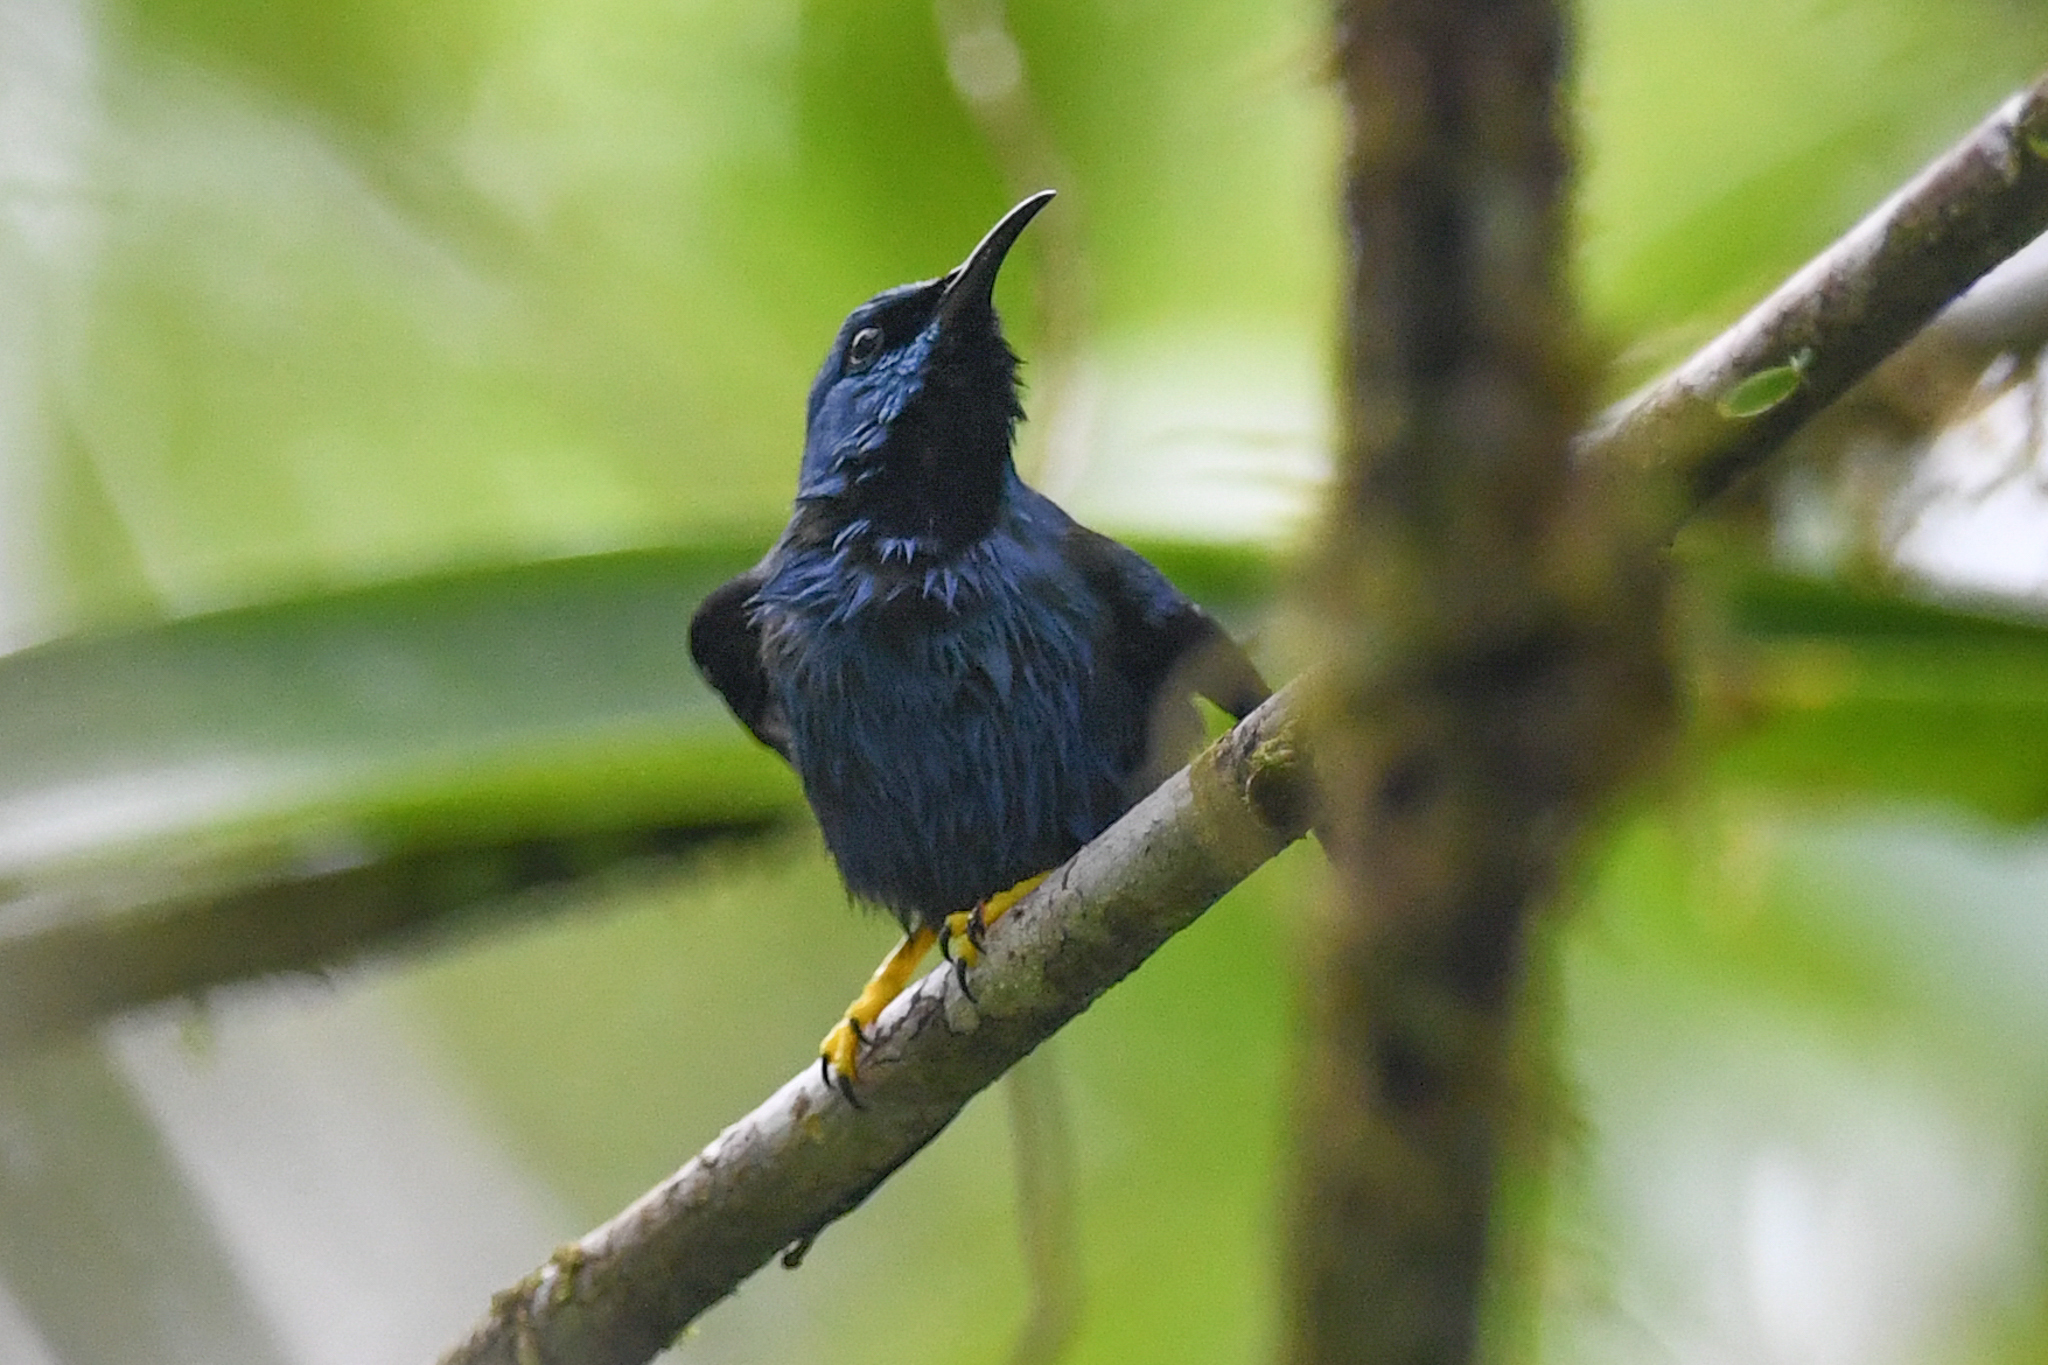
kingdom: Animalia
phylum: Chordata
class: Aves
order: Passeriformes
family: Thraupidae
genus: Cyanerpes
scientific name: Cyanerpes lucidus
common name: Shining honeycreeper
